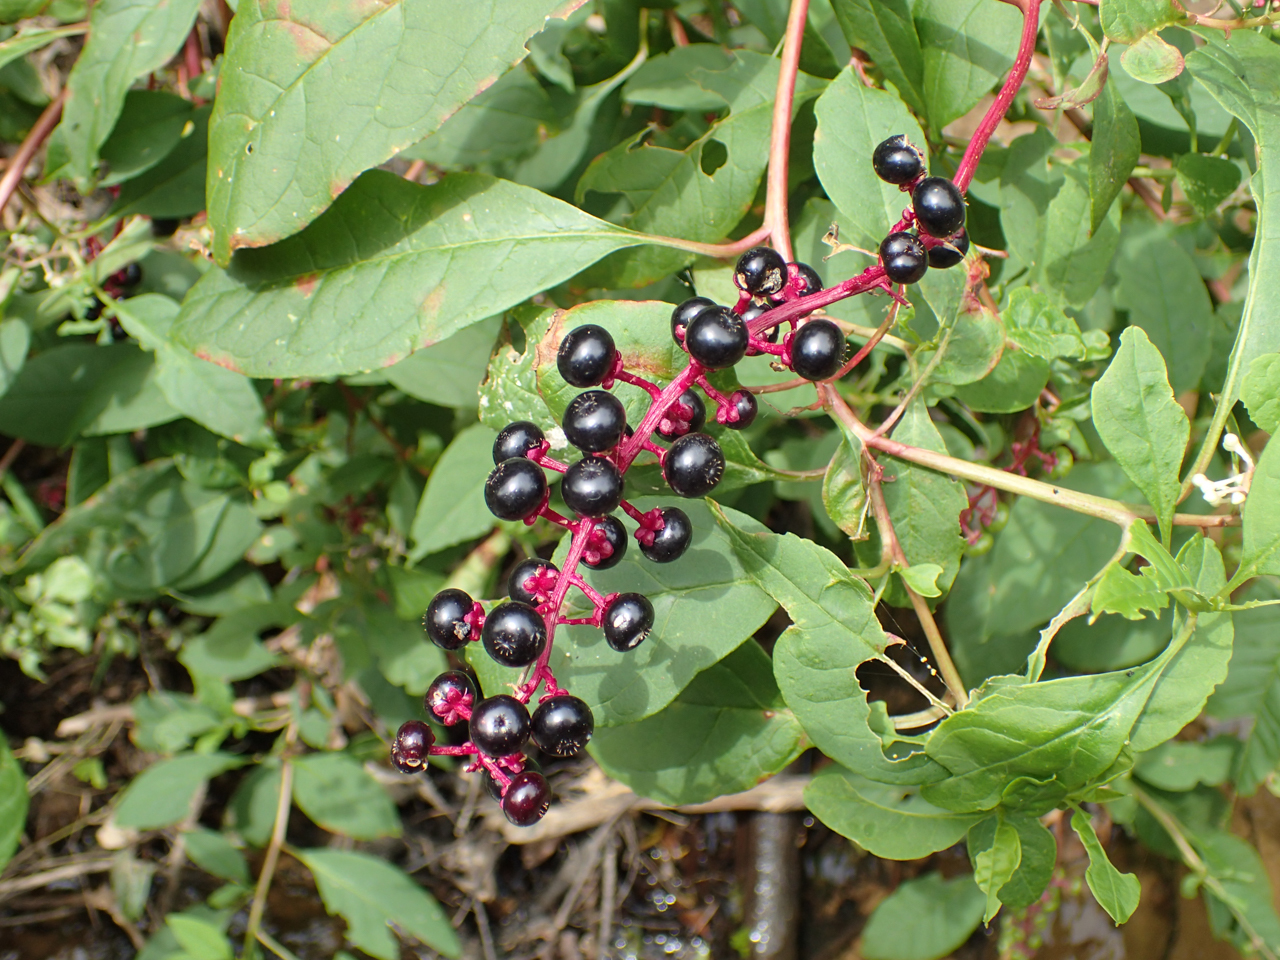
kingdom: Plantae
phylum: Tracheophyta
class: Magnoliopsida
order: Caryophyllales
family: Phytolaccaceae
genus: Phytolacca
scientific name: Phytolacca americana
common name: American pokeweed
